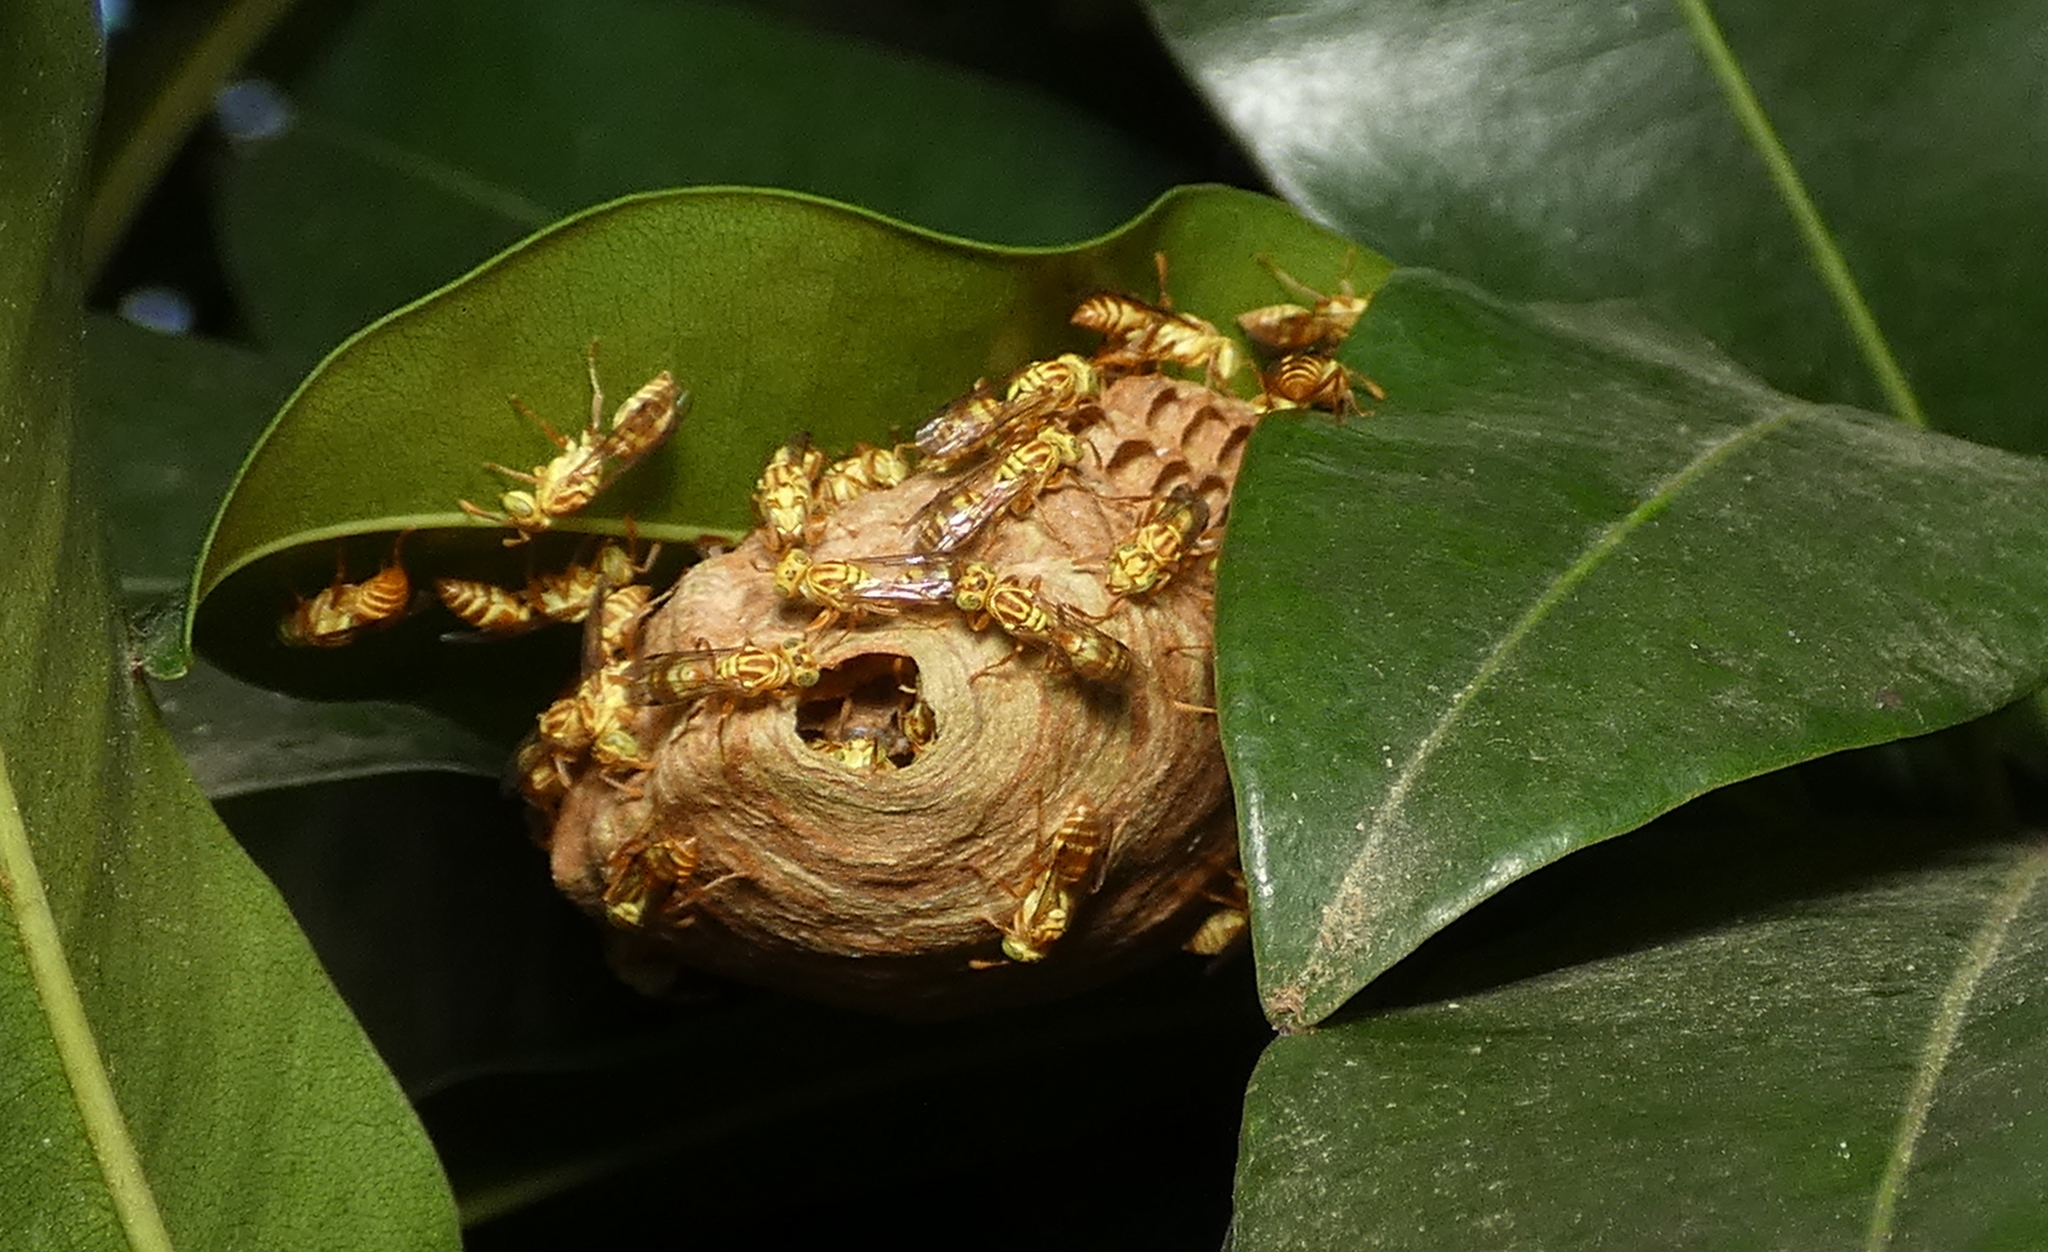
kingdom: Animalia
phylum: Arthropoda
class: Insecta
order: Hymenoptera
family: Vespidae
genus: Protopolybia
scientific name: Protopolybia potiguara
